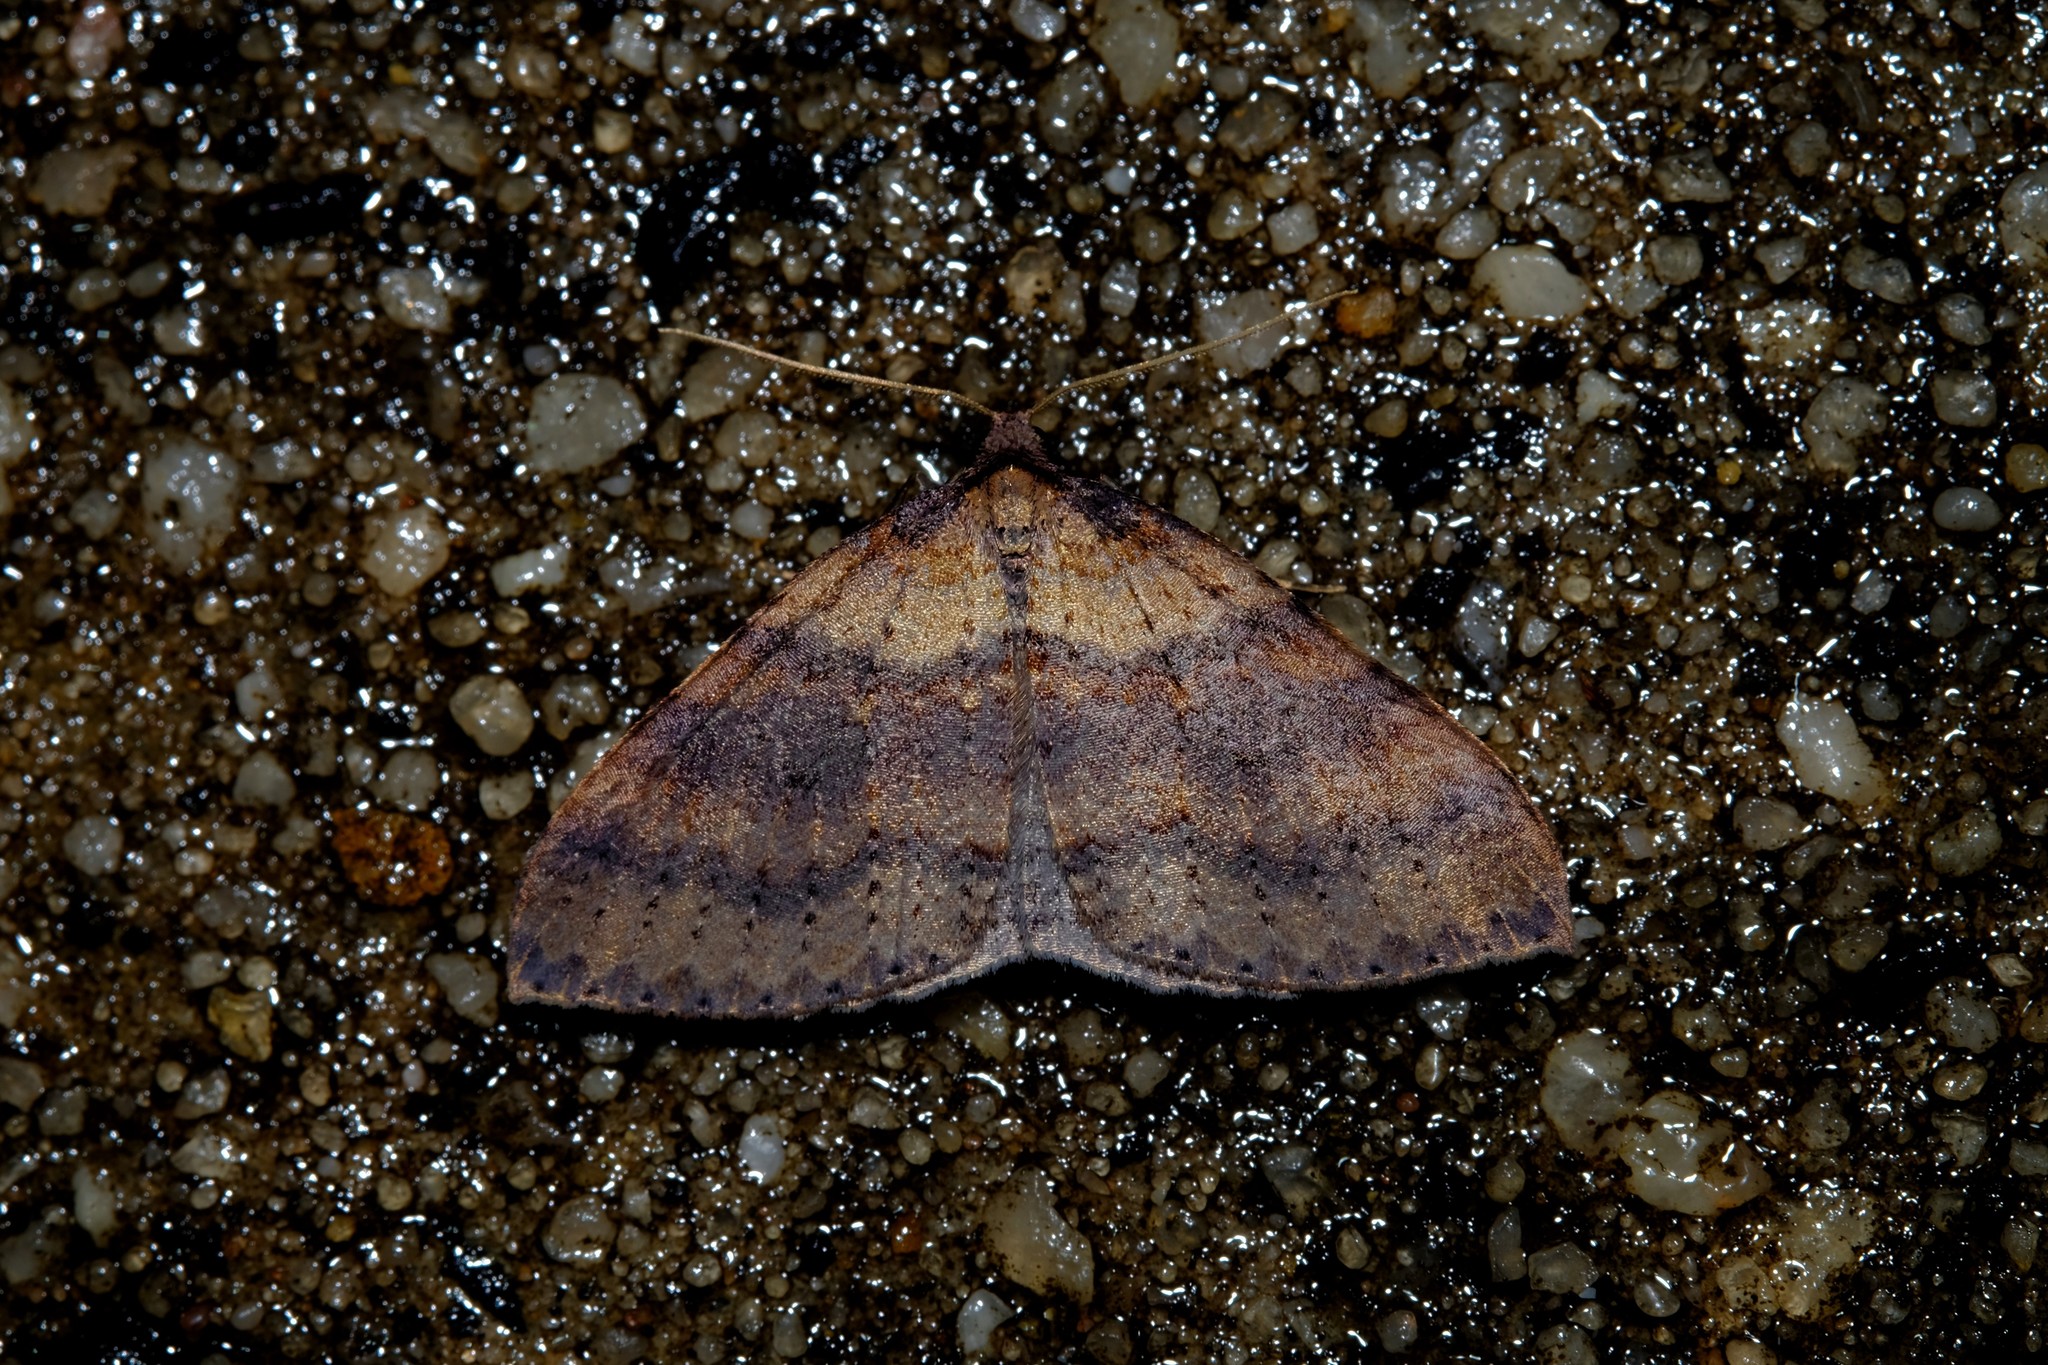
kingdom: Animalia
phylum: Arthropoda
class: Insecta
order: Lepidoptera
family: Geometridae
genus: Larentia
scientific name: Larentia apotoma
